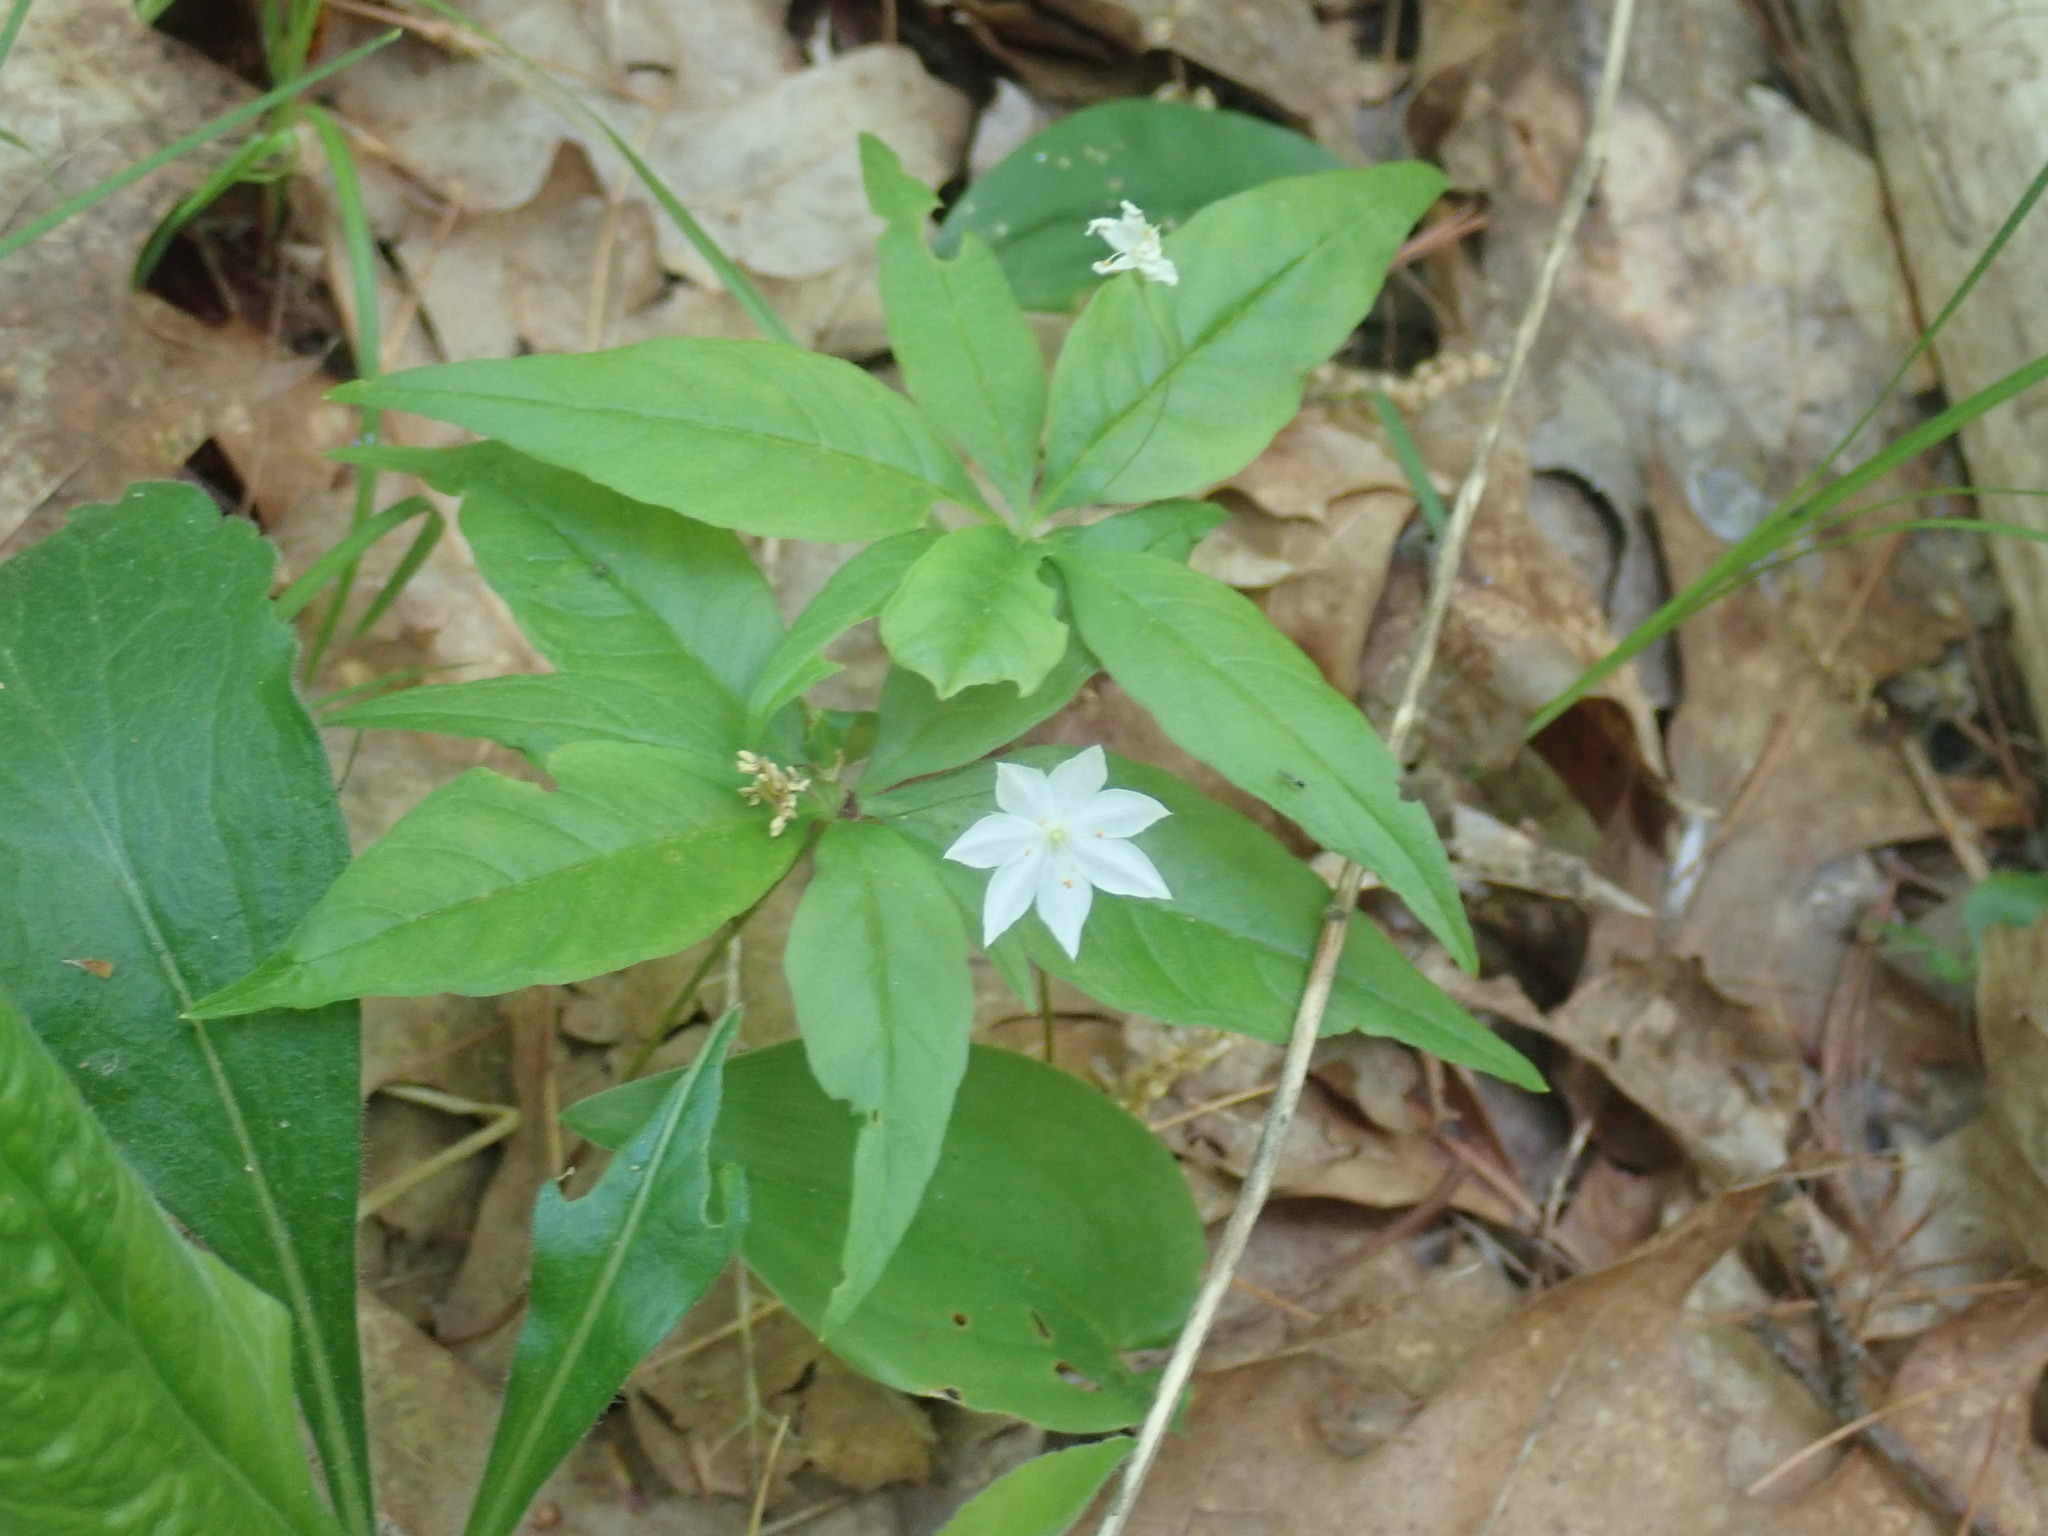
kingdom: Plantae
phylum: Tracheophyta
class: Magnoliopsida
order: Ericales
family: Primulaceae
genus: Lysimachia
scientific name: Lysimachia borealis
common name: American starflower
